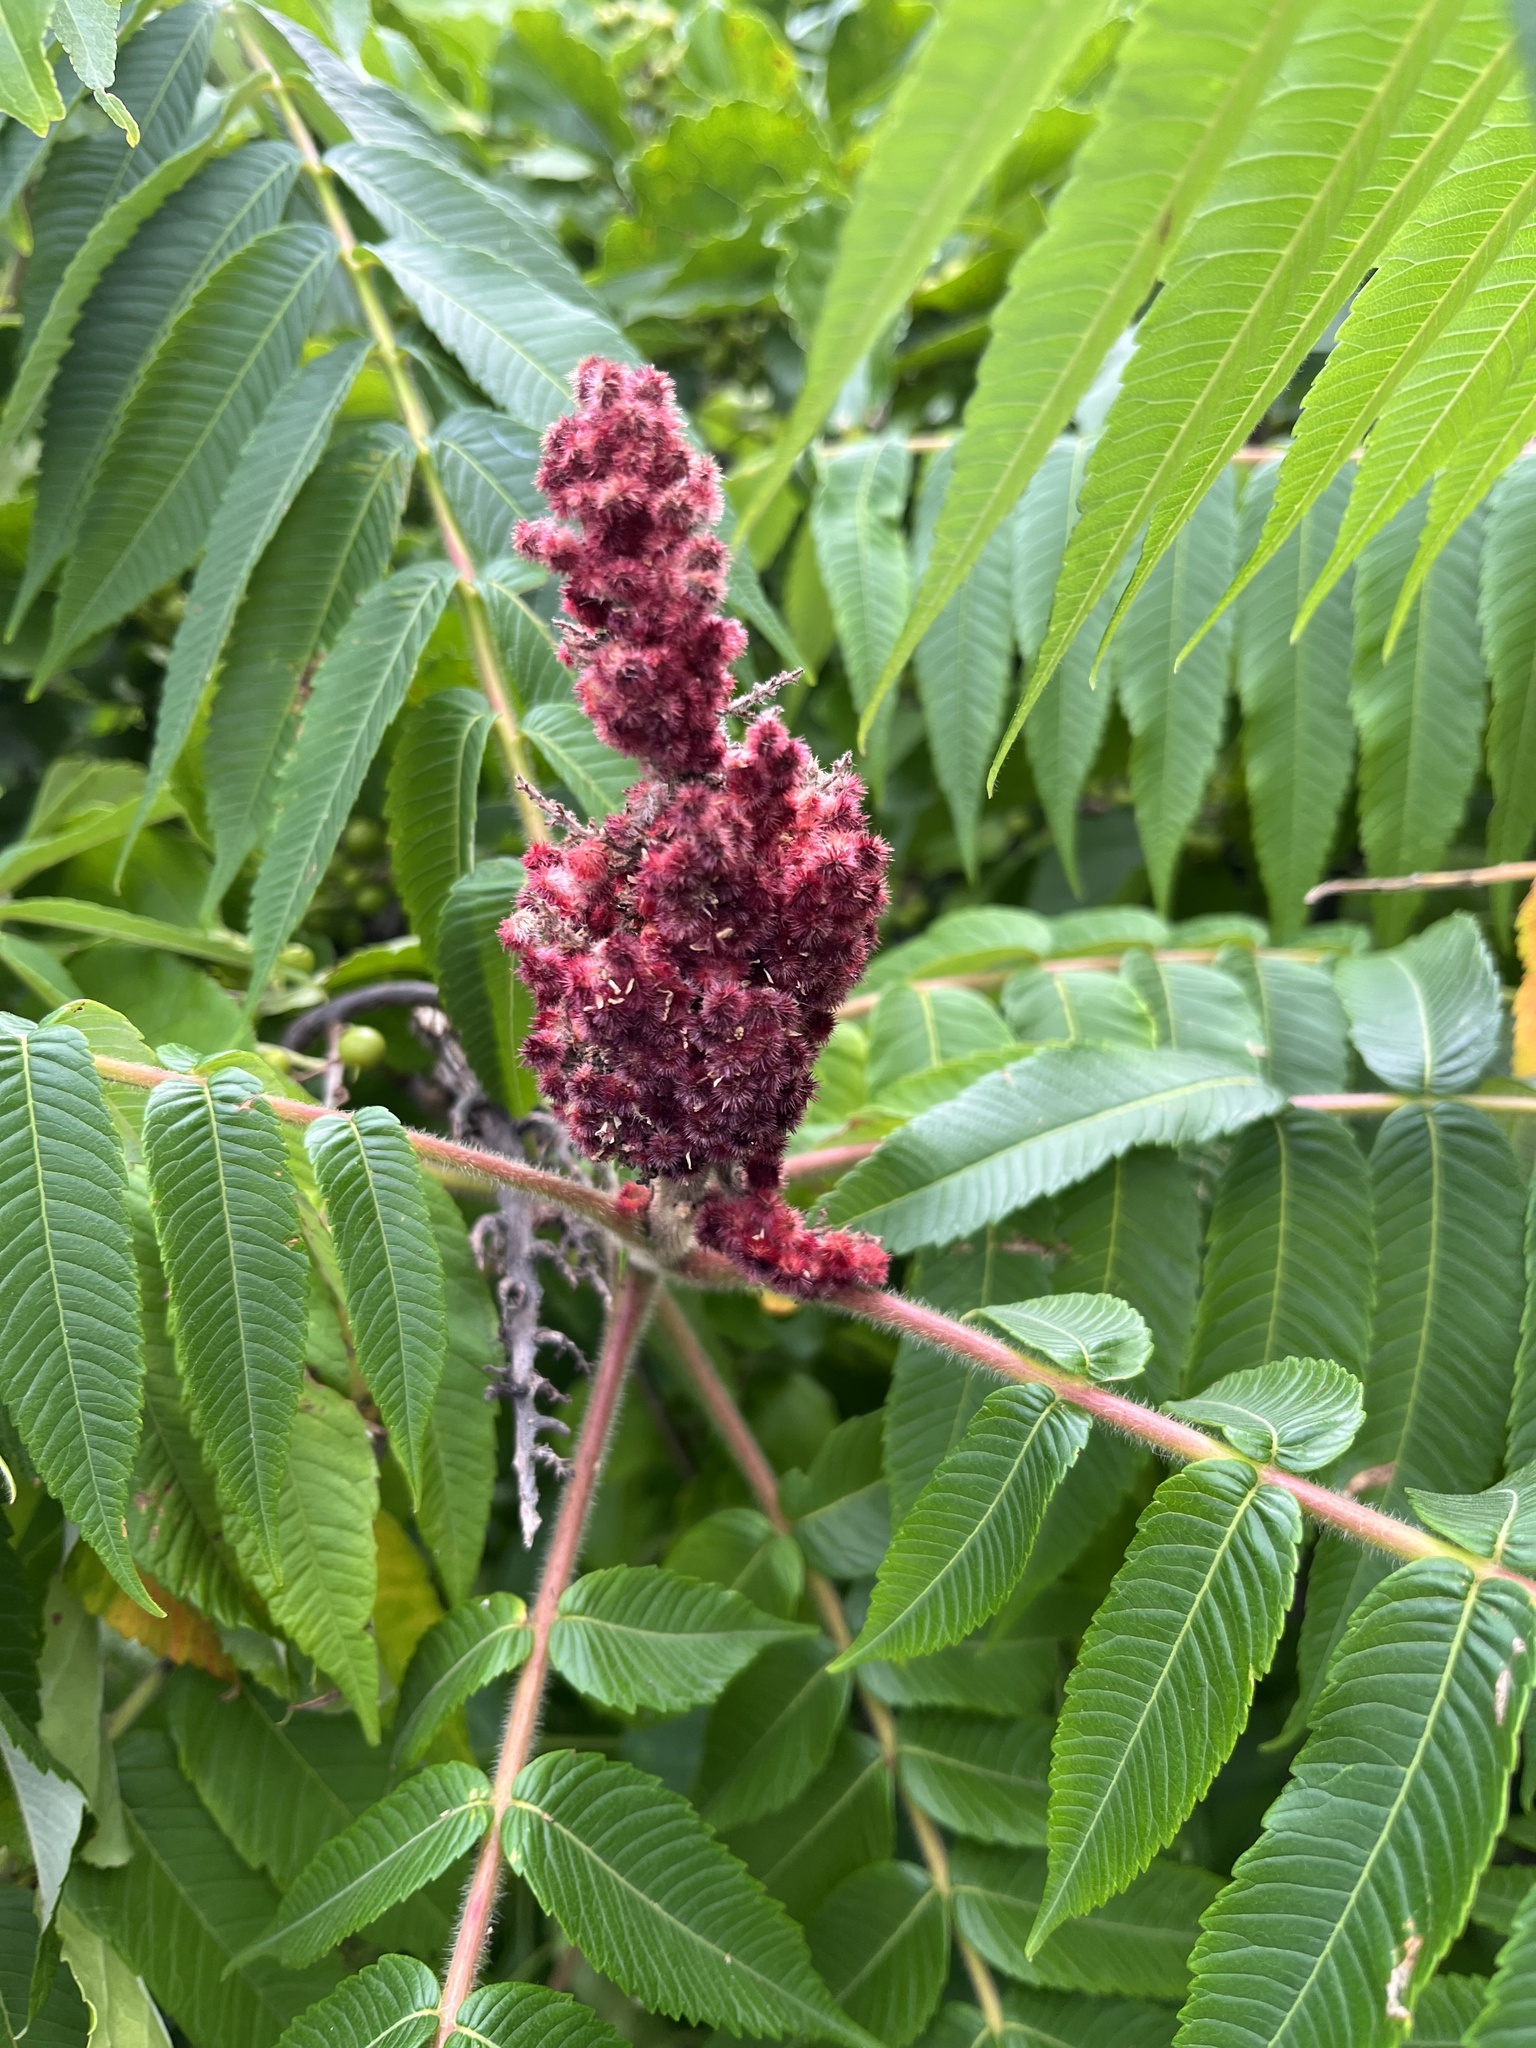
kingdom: Plantae
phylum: Tracheophyta
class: Magnoliopsida
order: Sapindales
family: Anacardiaceae
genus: Rhus
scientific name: Rhus typhina
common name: Staghorn sumac
